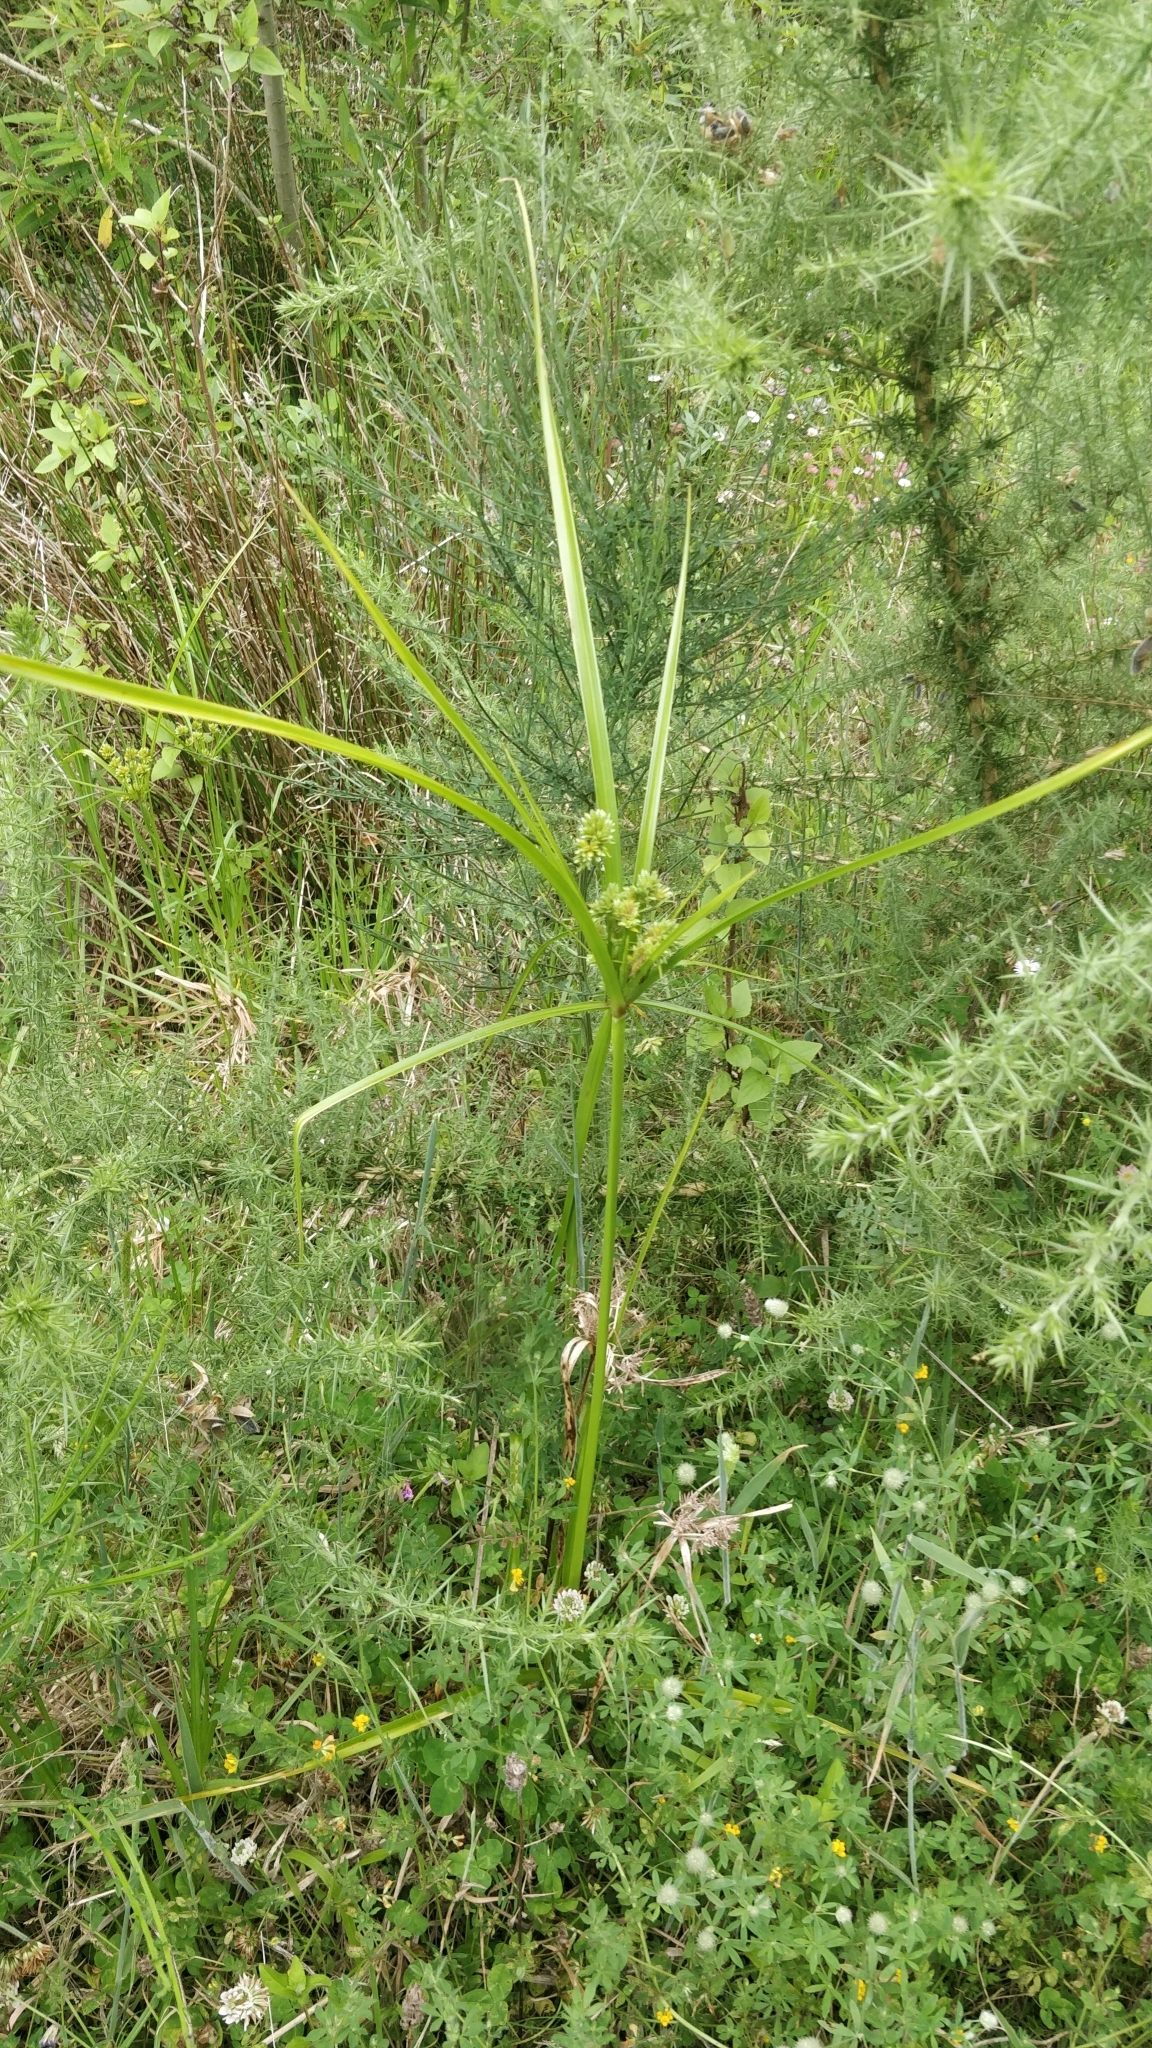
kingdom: Plantae
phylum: Tracheophyta
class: Liliopsida
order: Poales
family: Cyperaceae
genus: Cyperus
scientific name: Cyperus eragrostis
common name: Tall flatsedge
